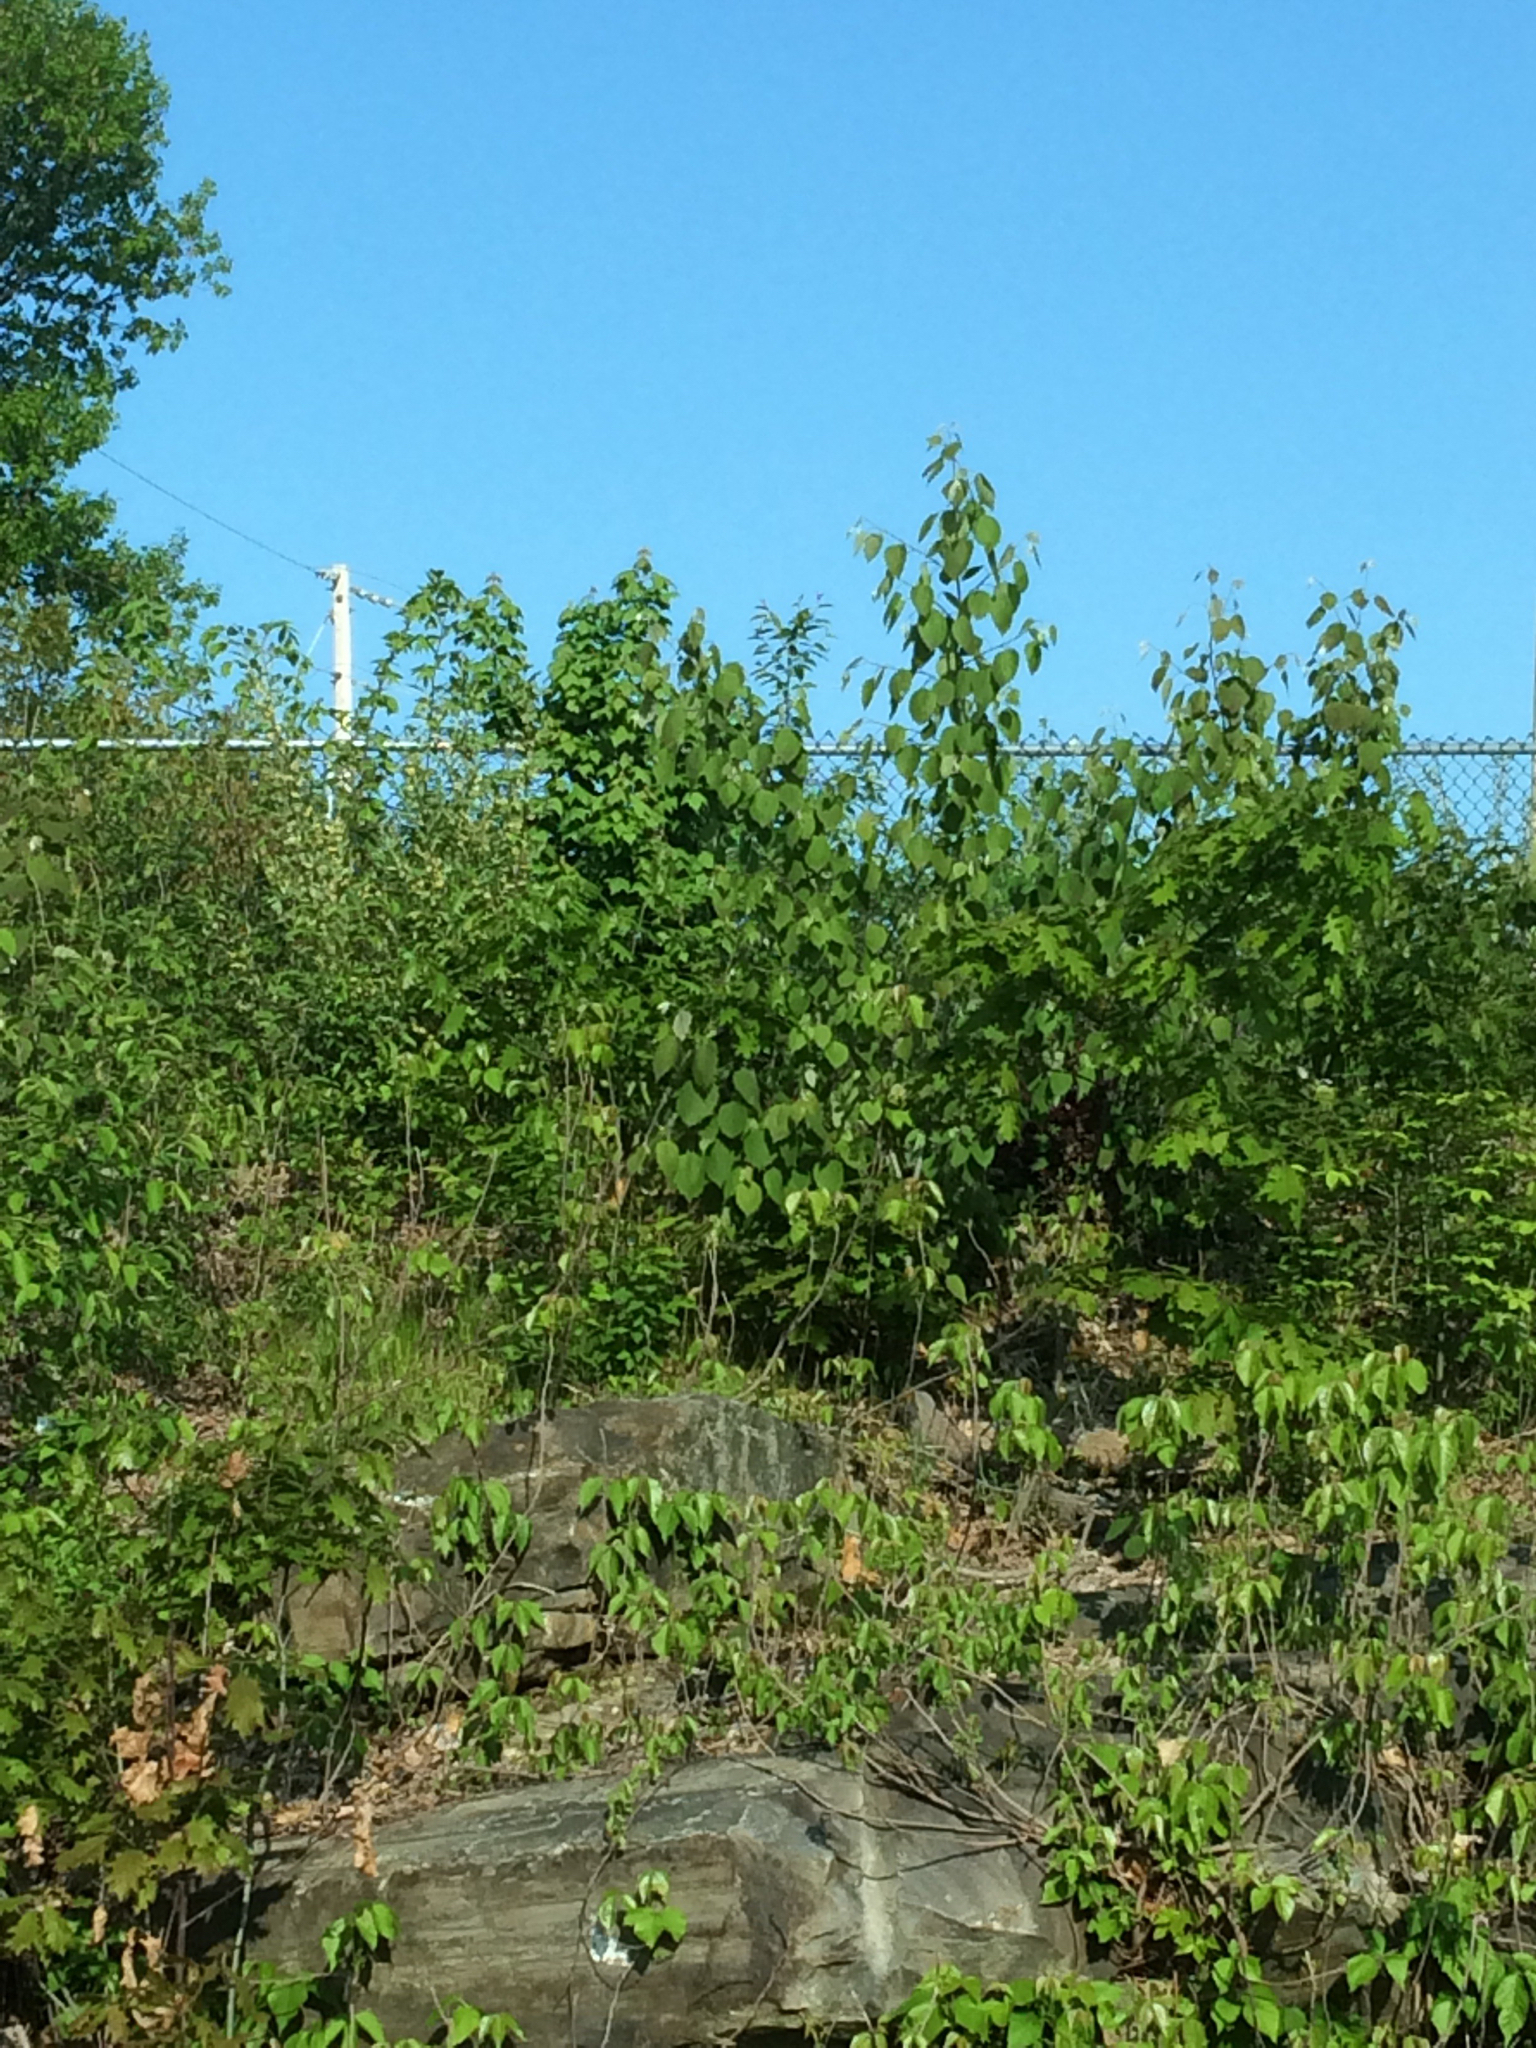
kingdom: Plantae
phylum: Tracheophyta
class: Magnoliopsida
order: Malpighiales
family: Salicaceae
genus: Populus
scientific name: Populus tremuloides
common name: Quaking aspen
